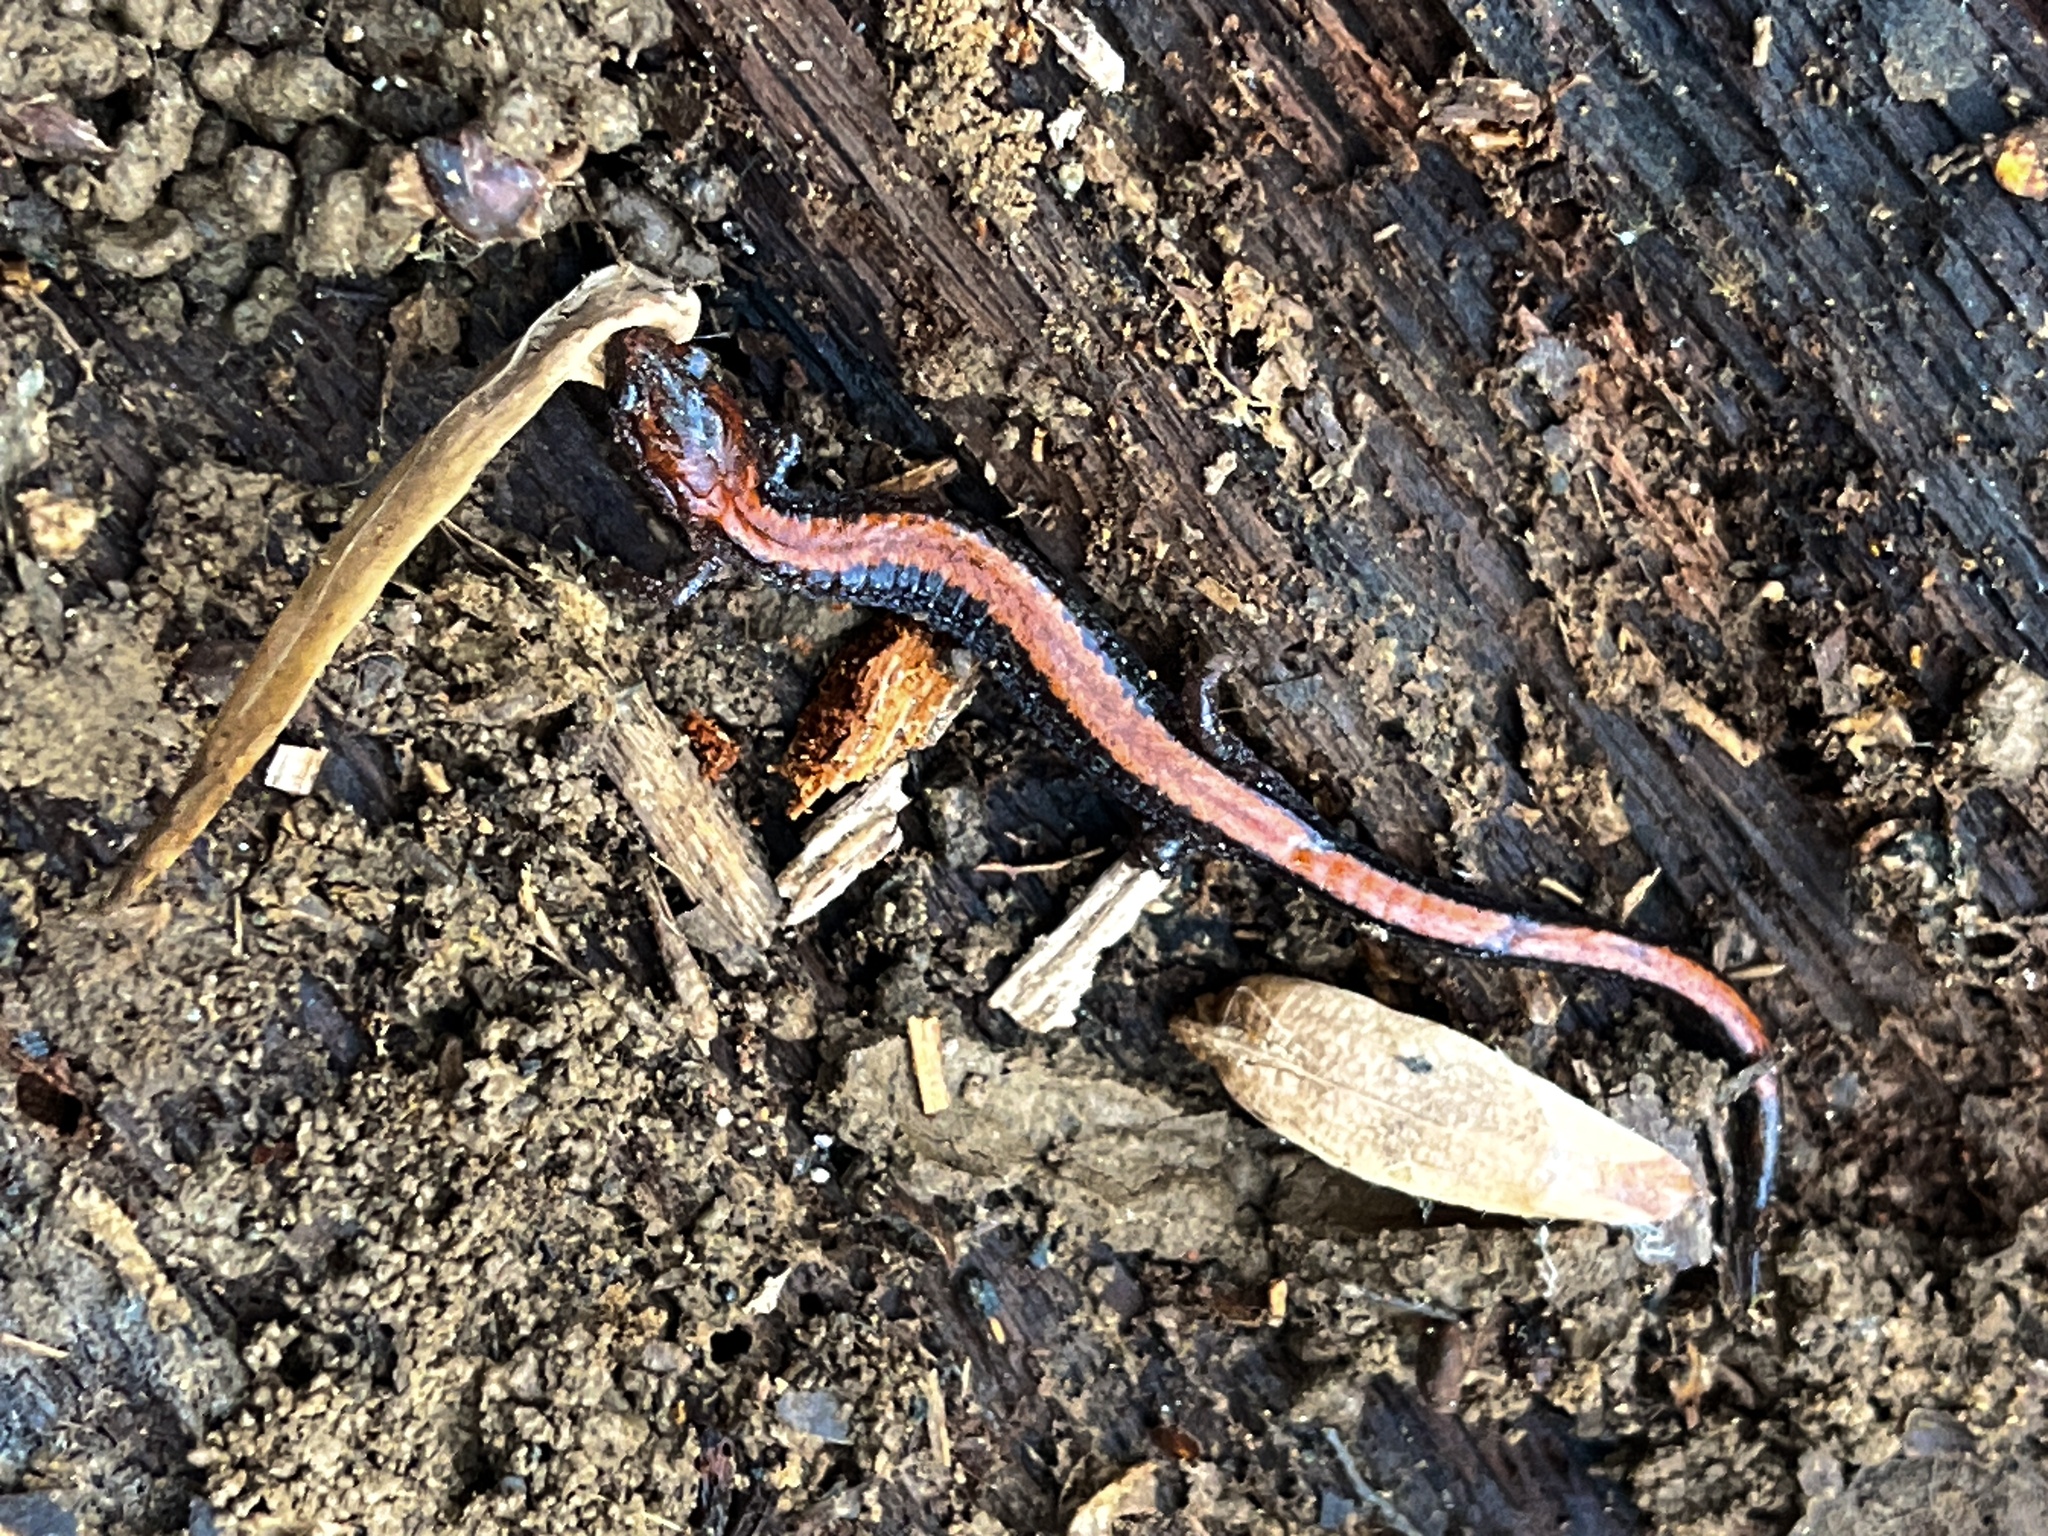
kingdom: Animalia
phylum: Chordata
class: Amphibia
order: Caudata
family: Plethodontidae
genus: Plethodon
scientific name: Plethodon cinereus
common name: Redback salamander
